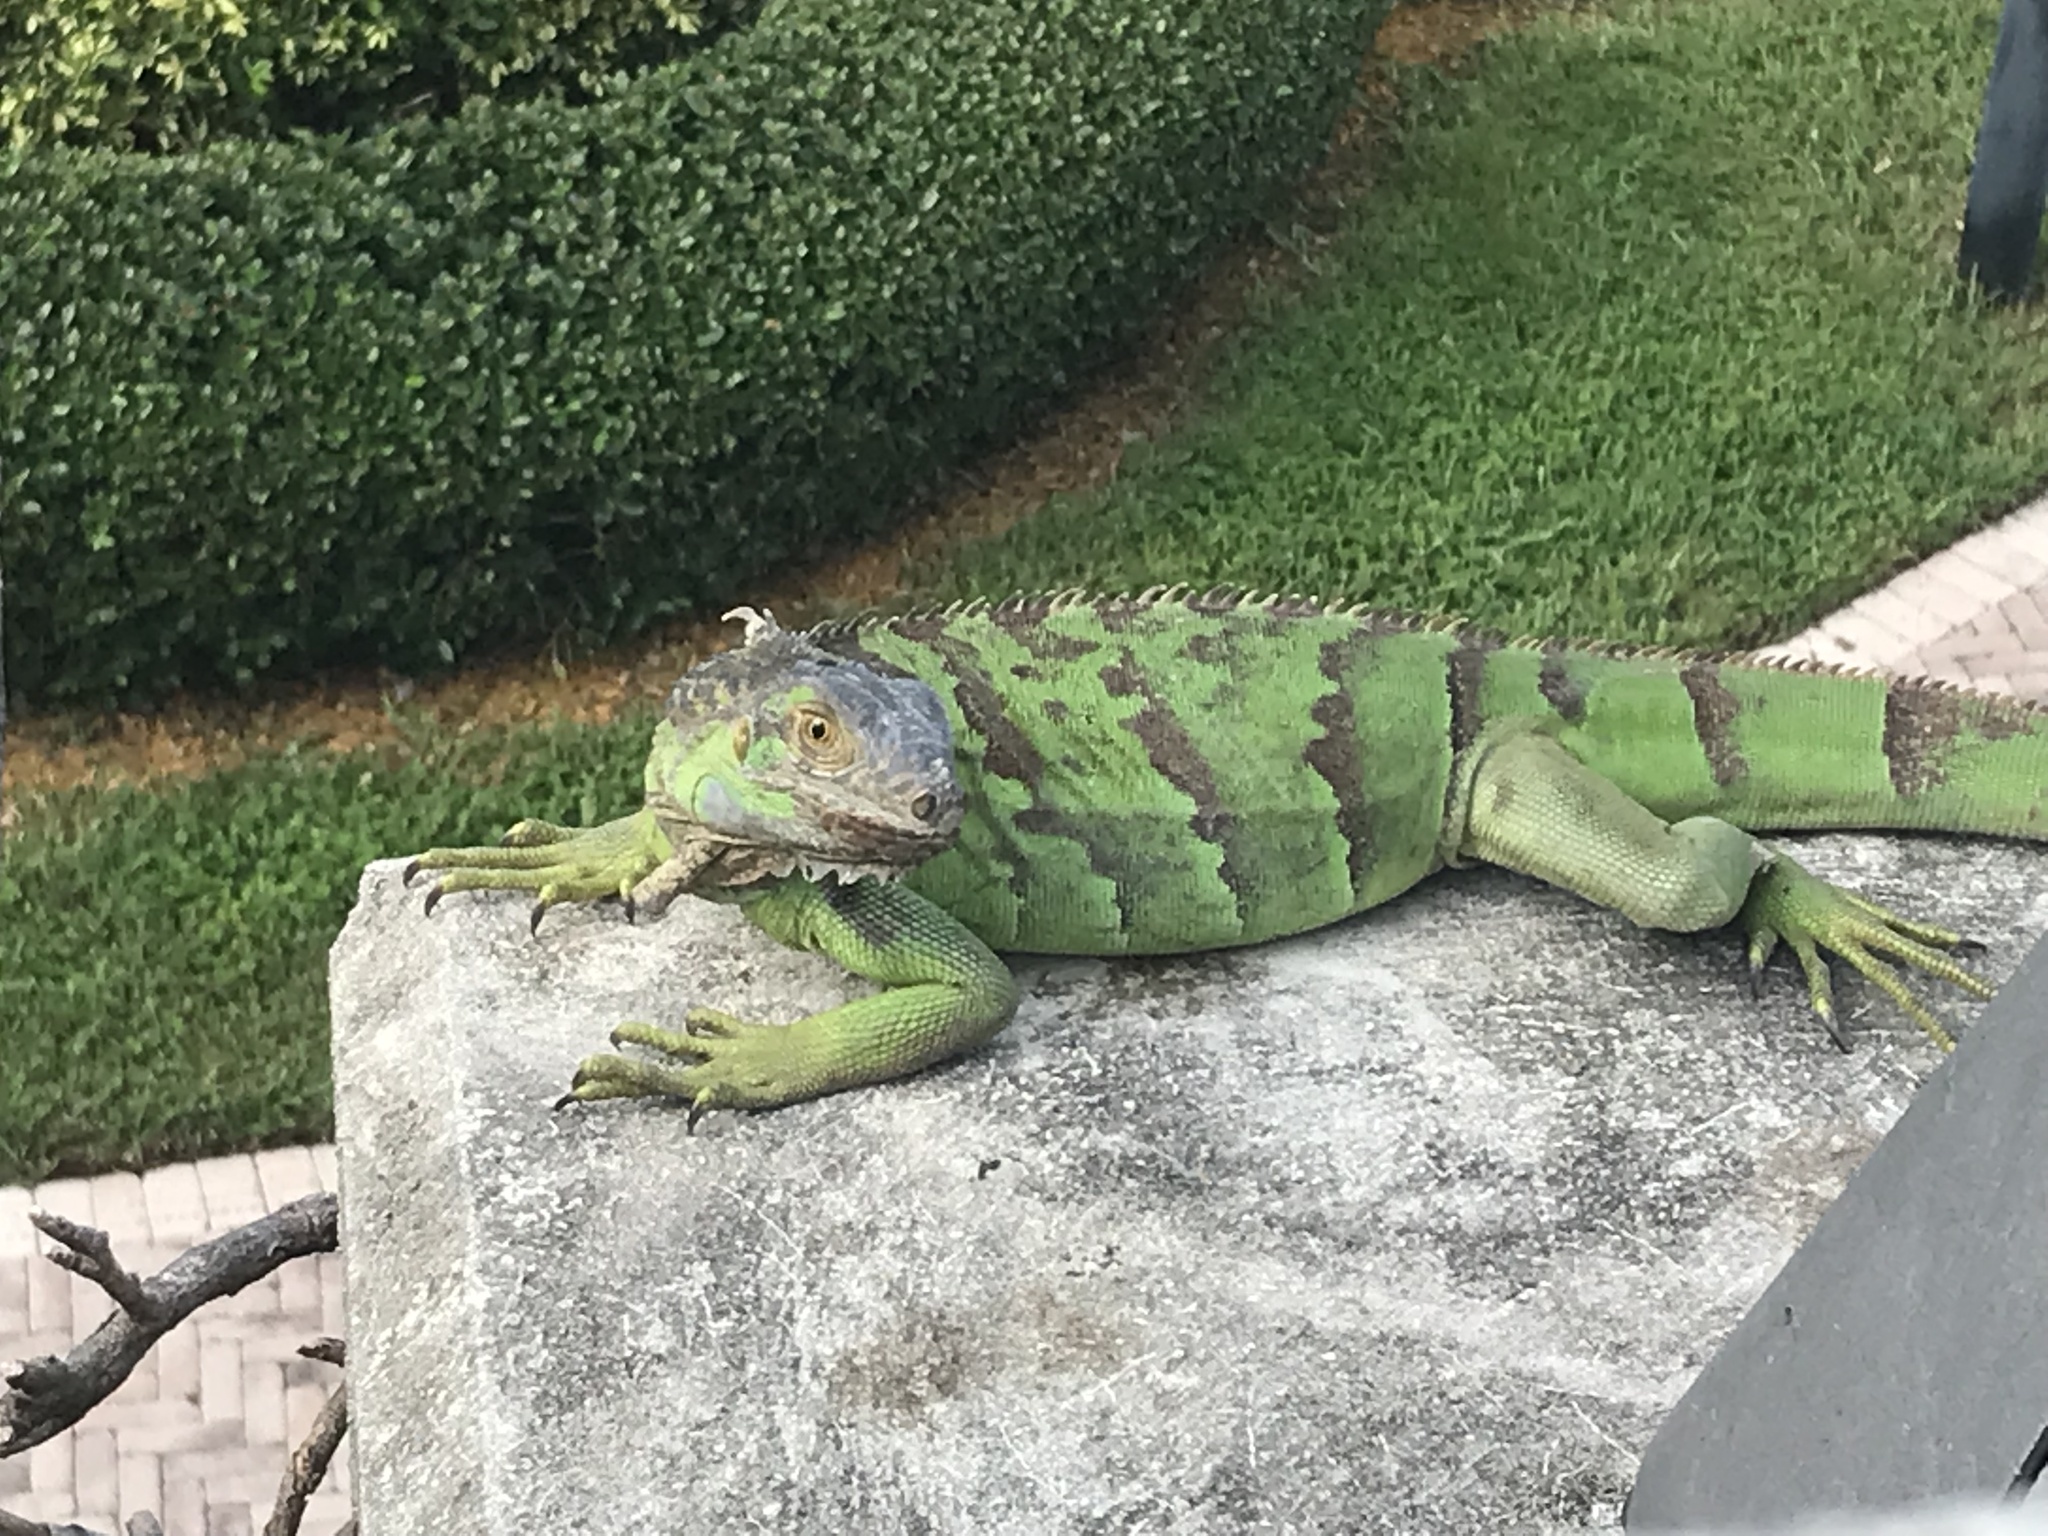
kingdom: Animalia
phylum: Chordata
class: Squamata
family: Iguanidae
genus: Iguana
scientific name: Iguana iguana
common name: Green iguana
